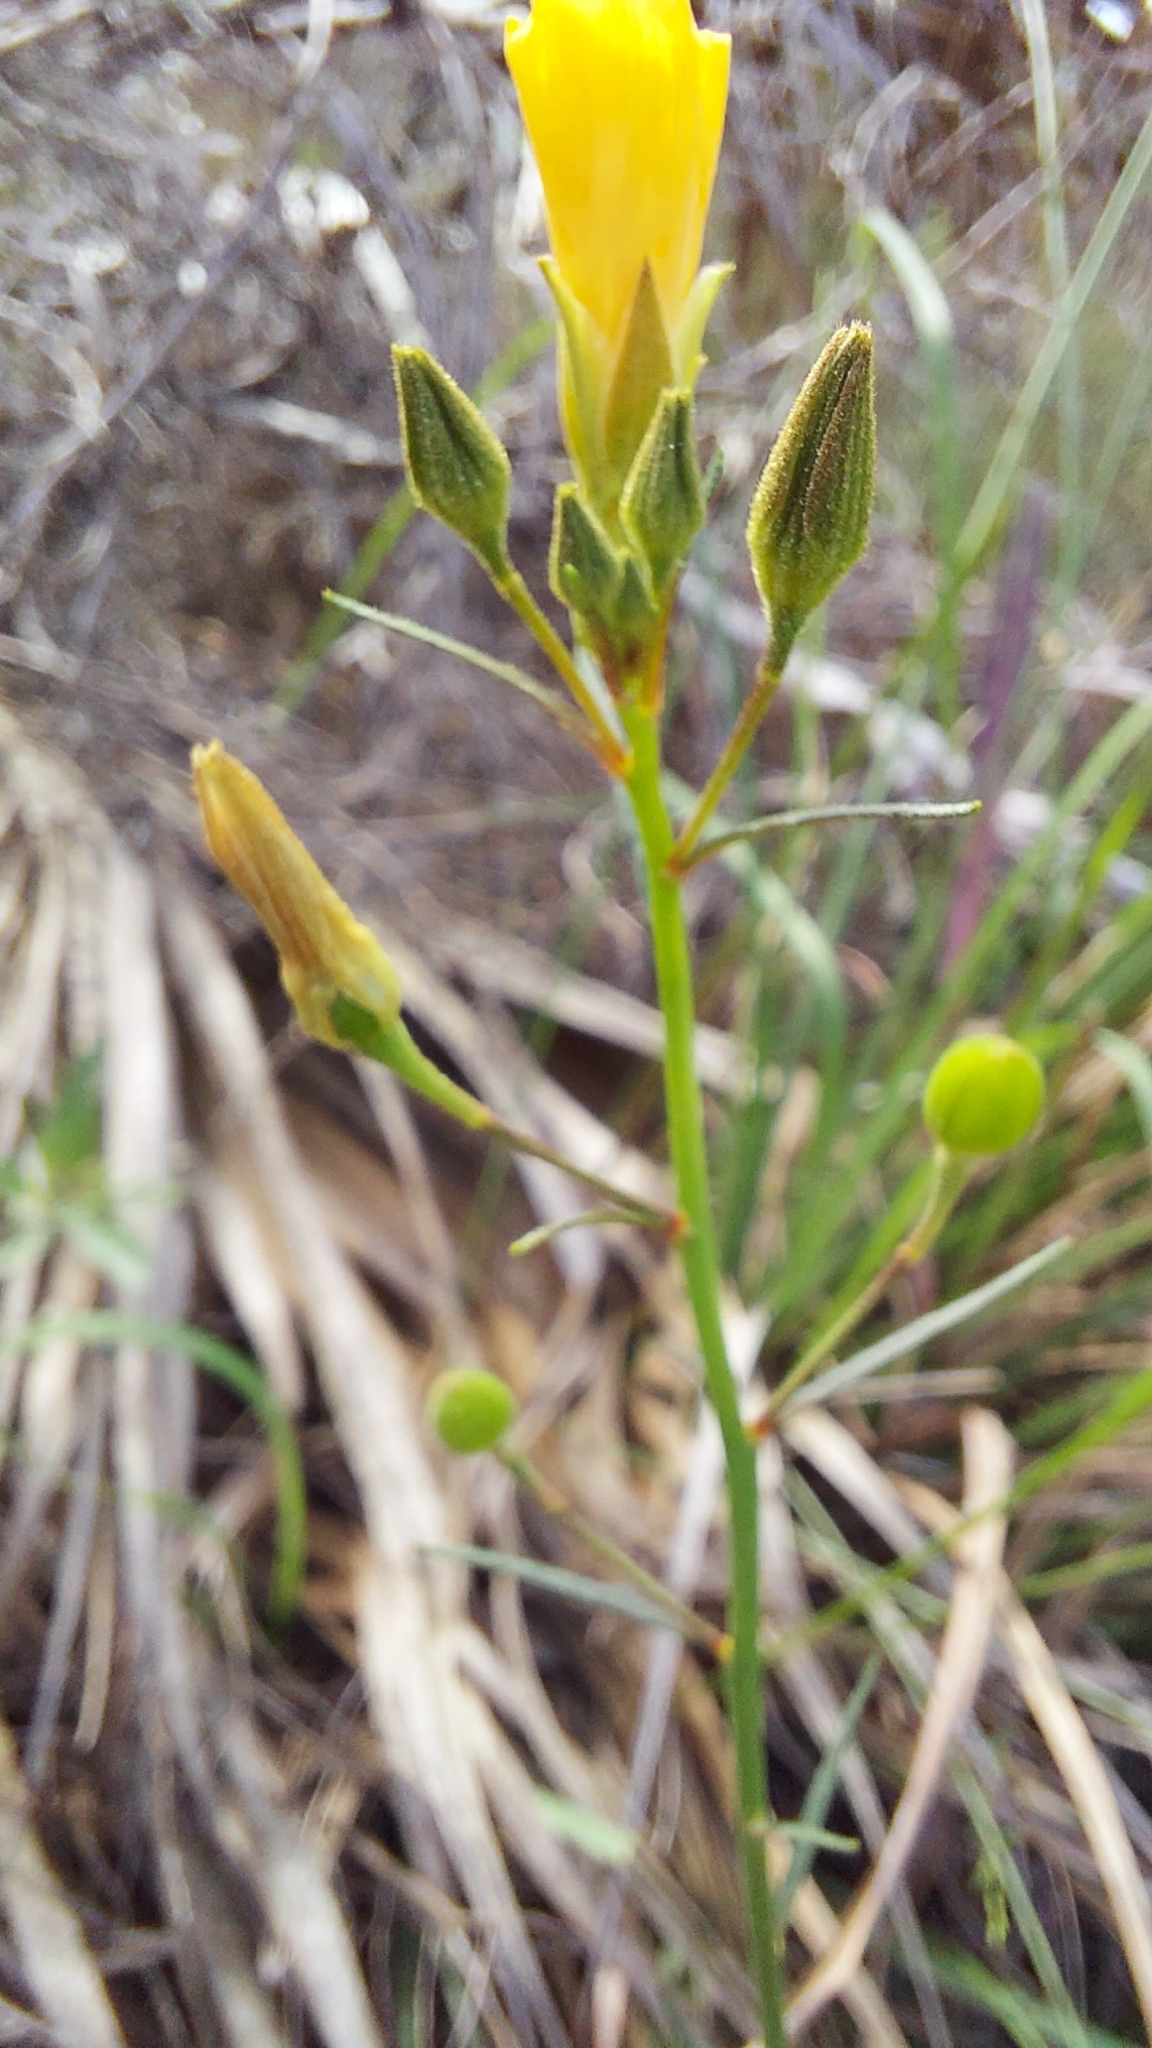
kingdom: Plantae
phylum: Tracheophyta
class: Magnoliopsida
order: Malpighiales
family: Turneraceae
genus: Piriqueta
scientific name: Piriqueta cistoides
